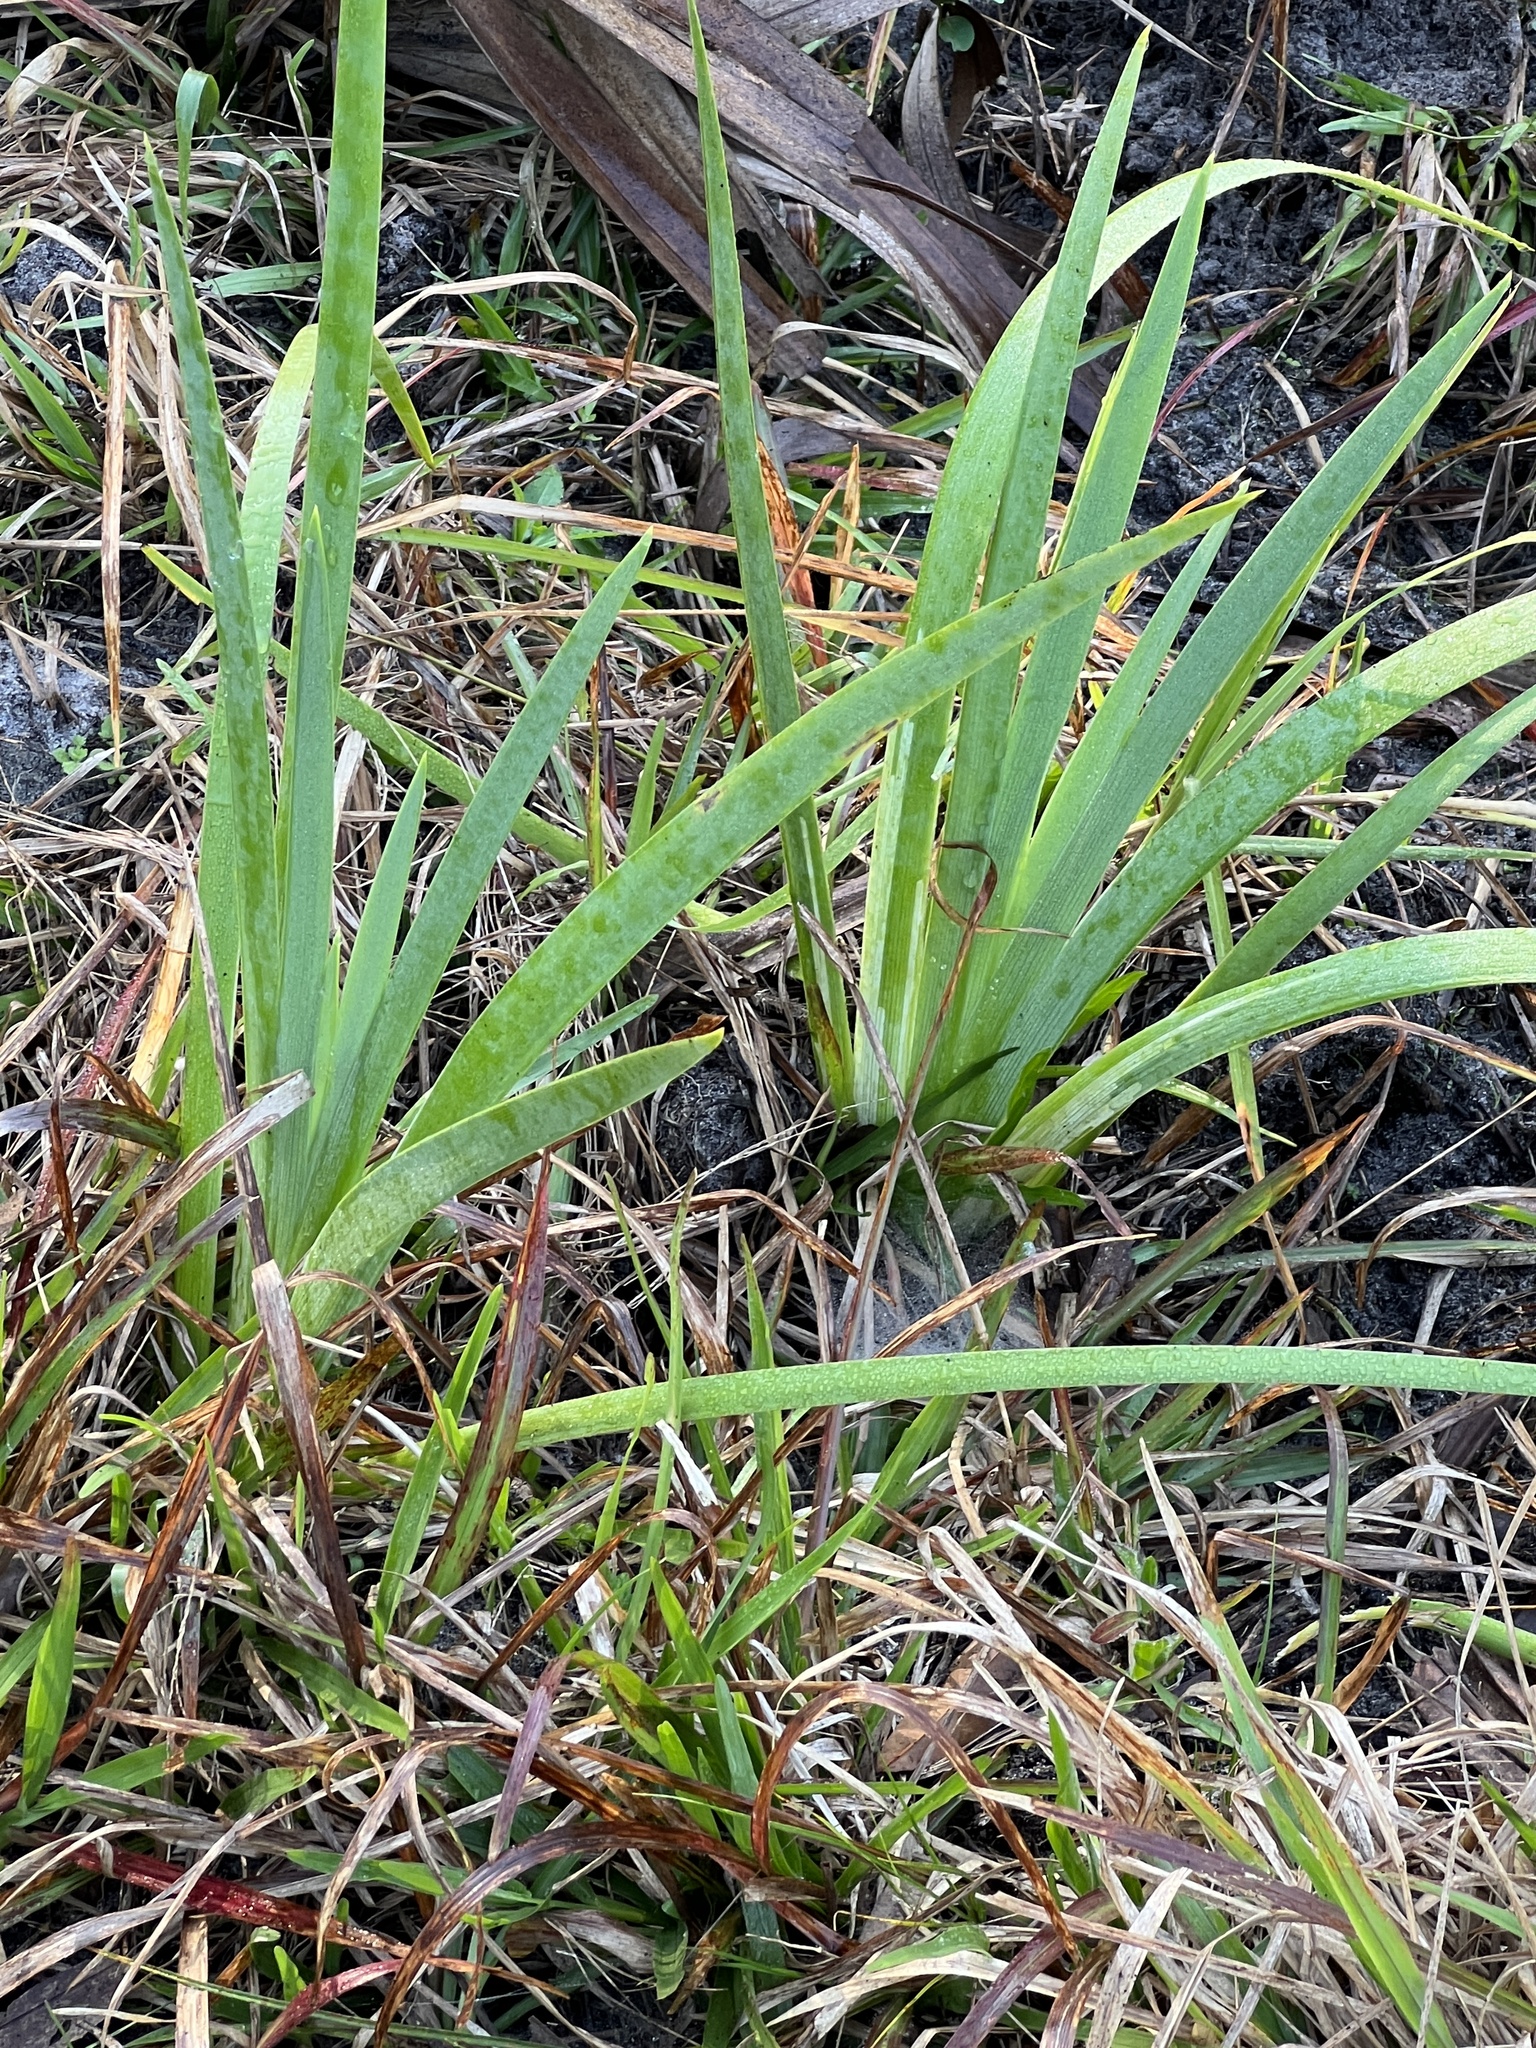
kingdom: Plantae
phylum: Tracheophyta
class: Liliopsida
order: Asparagales
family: Iridaceae
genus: Iris
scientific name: Iris savannarum
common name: Prairie iris
